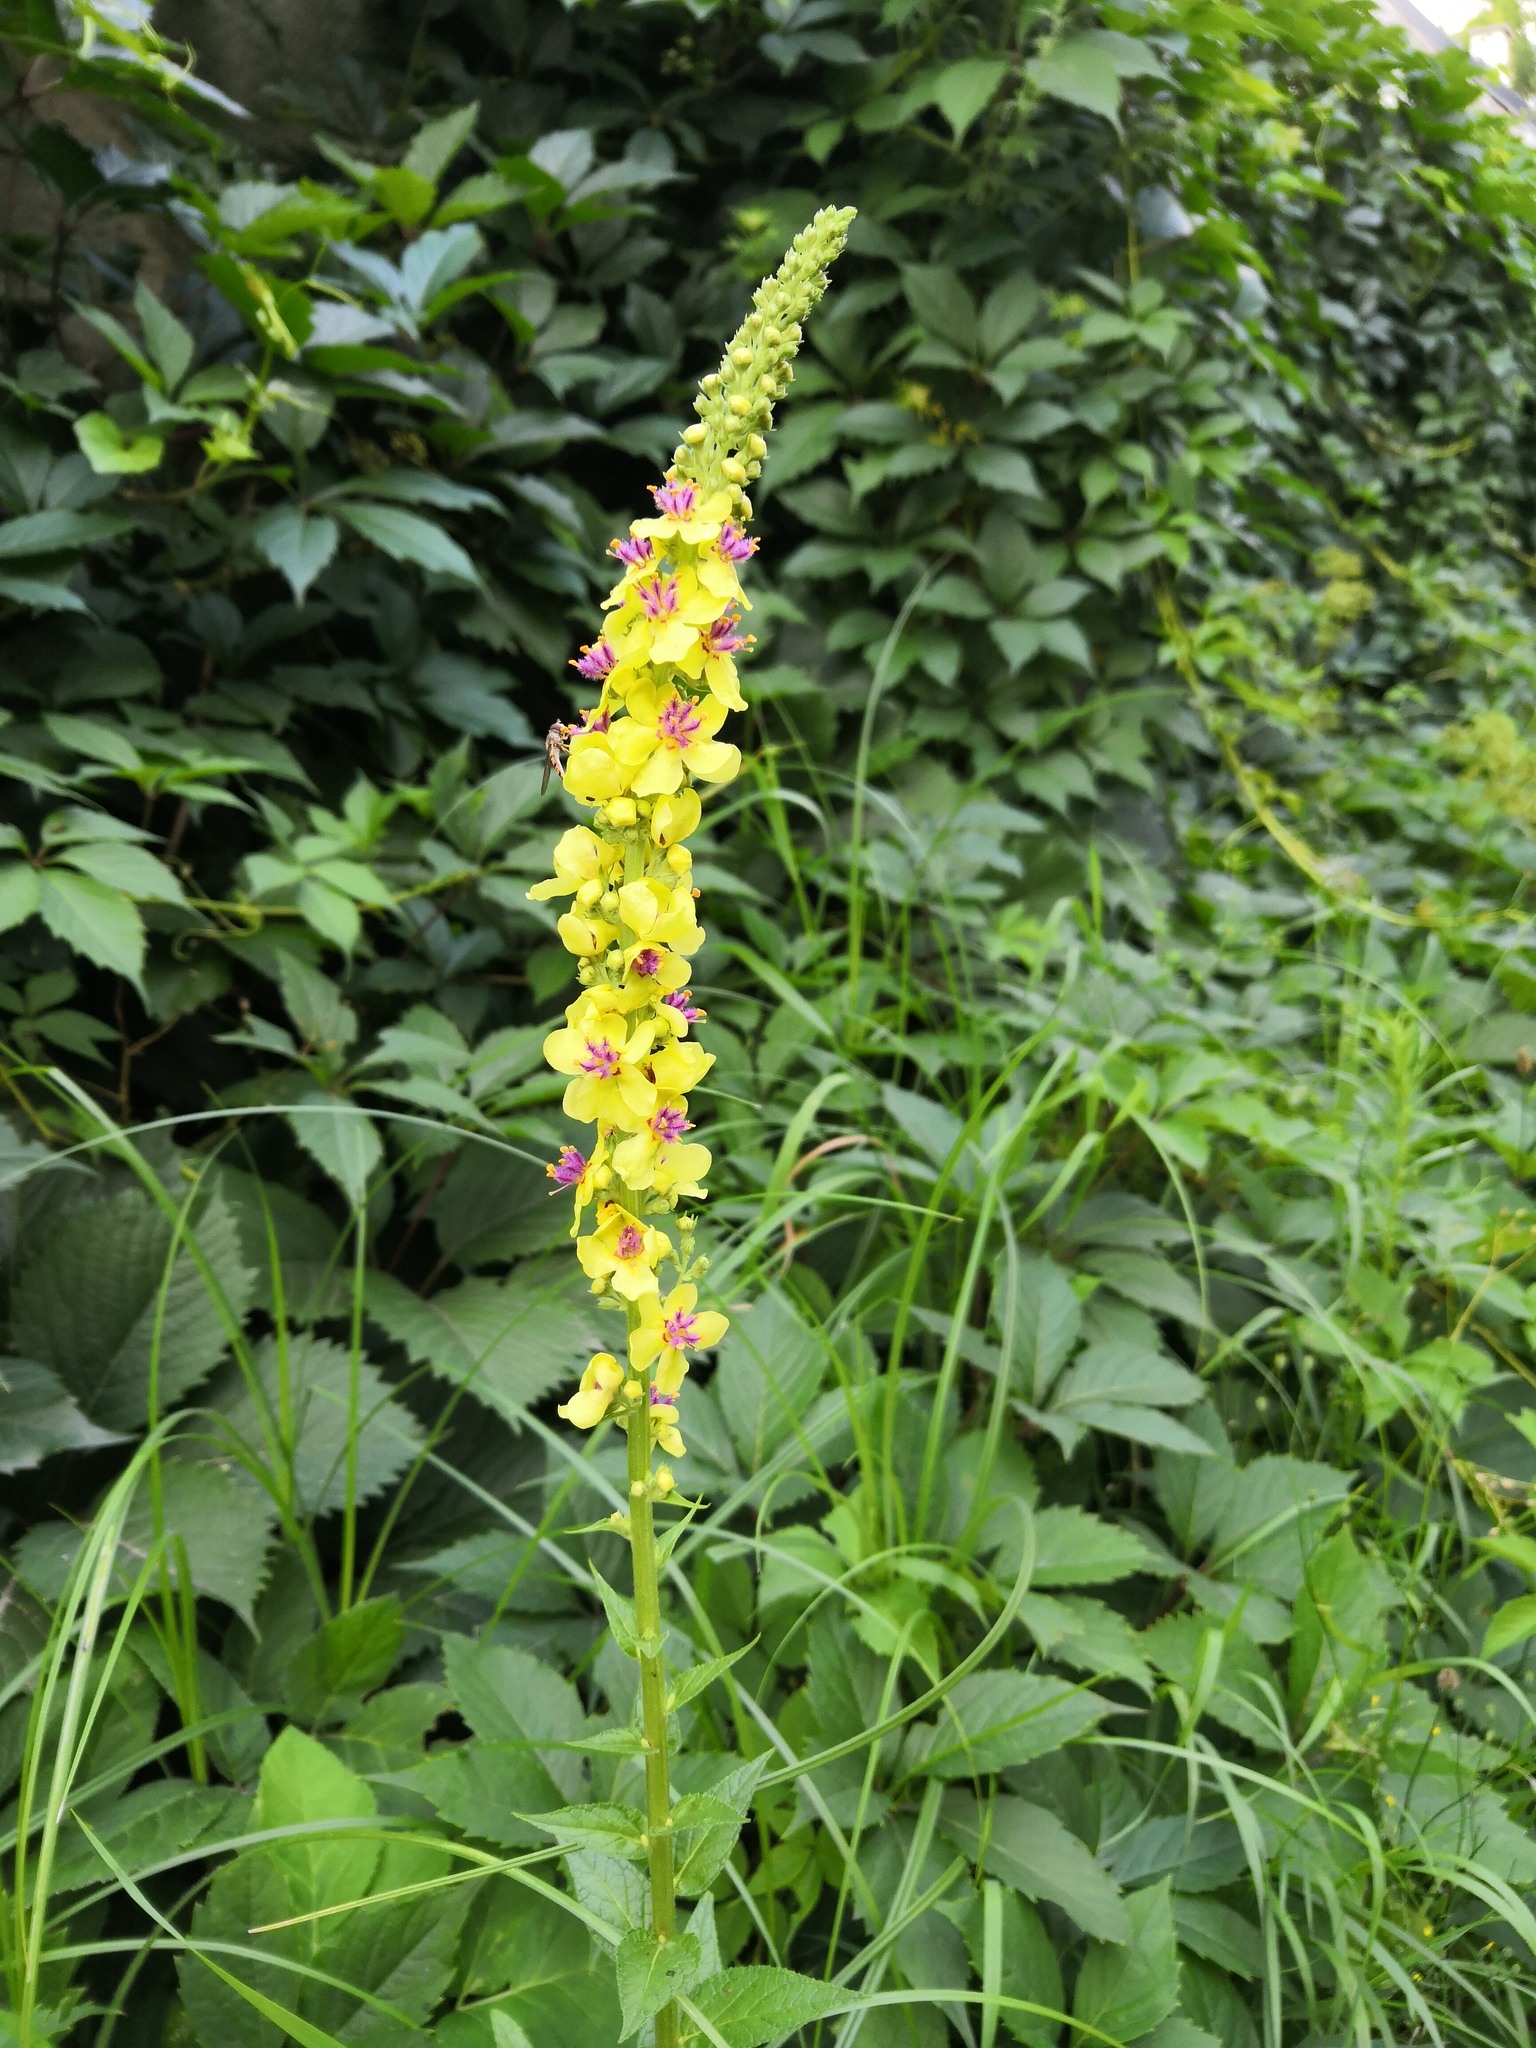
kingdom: Plantae
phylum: Tracheophyta
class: Magnoliopsida
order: Lamiales
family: Scrophulariaceae
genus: Verbascum
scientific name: Verbascum nigrum
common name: Dark mullein
